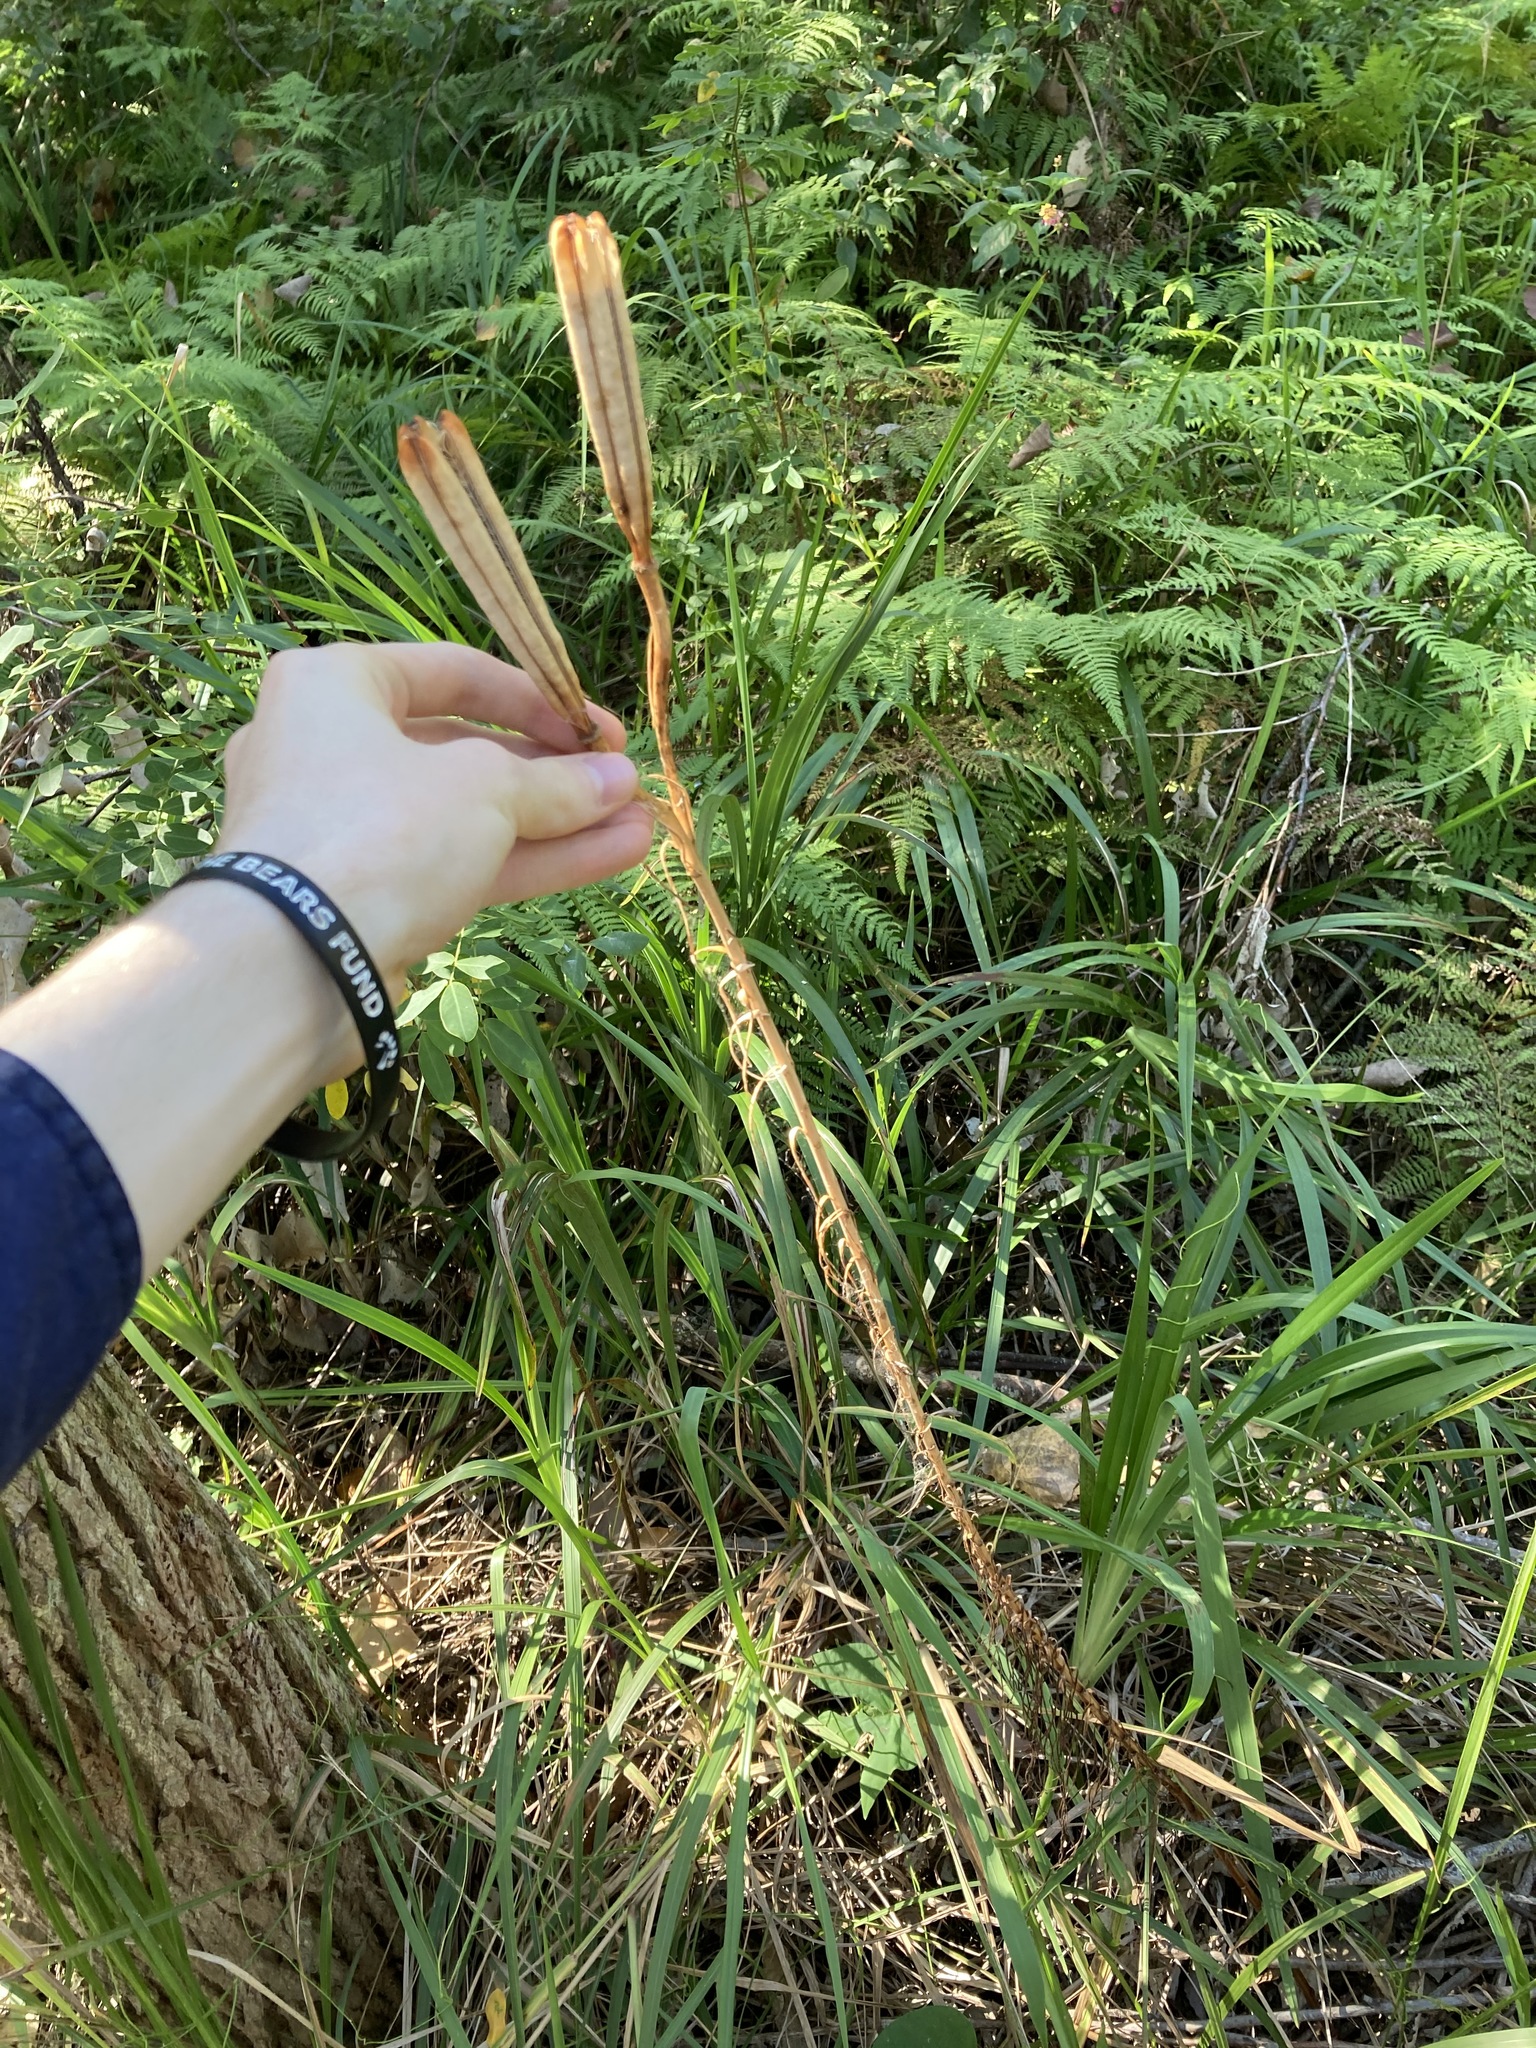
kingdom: Plantae
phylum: Tracheophyta
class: Liliopsida
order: Liliales
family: Liliaceae
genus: Lilium
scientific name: Lilium formosanum
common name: Formosa lily
